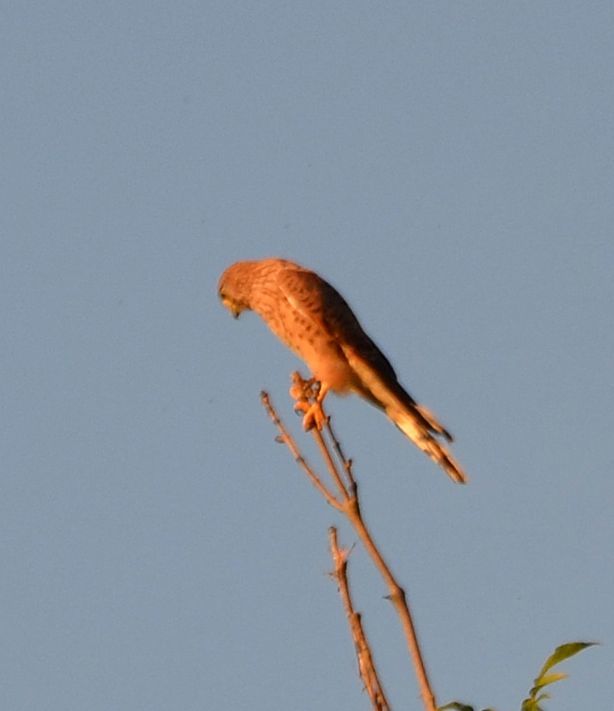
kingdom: Animalia
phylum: Chordata
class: Aves
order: Falconiformes
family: Falconidae
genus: Falco
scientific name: Falco tinnunculus
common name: Common kestrel
